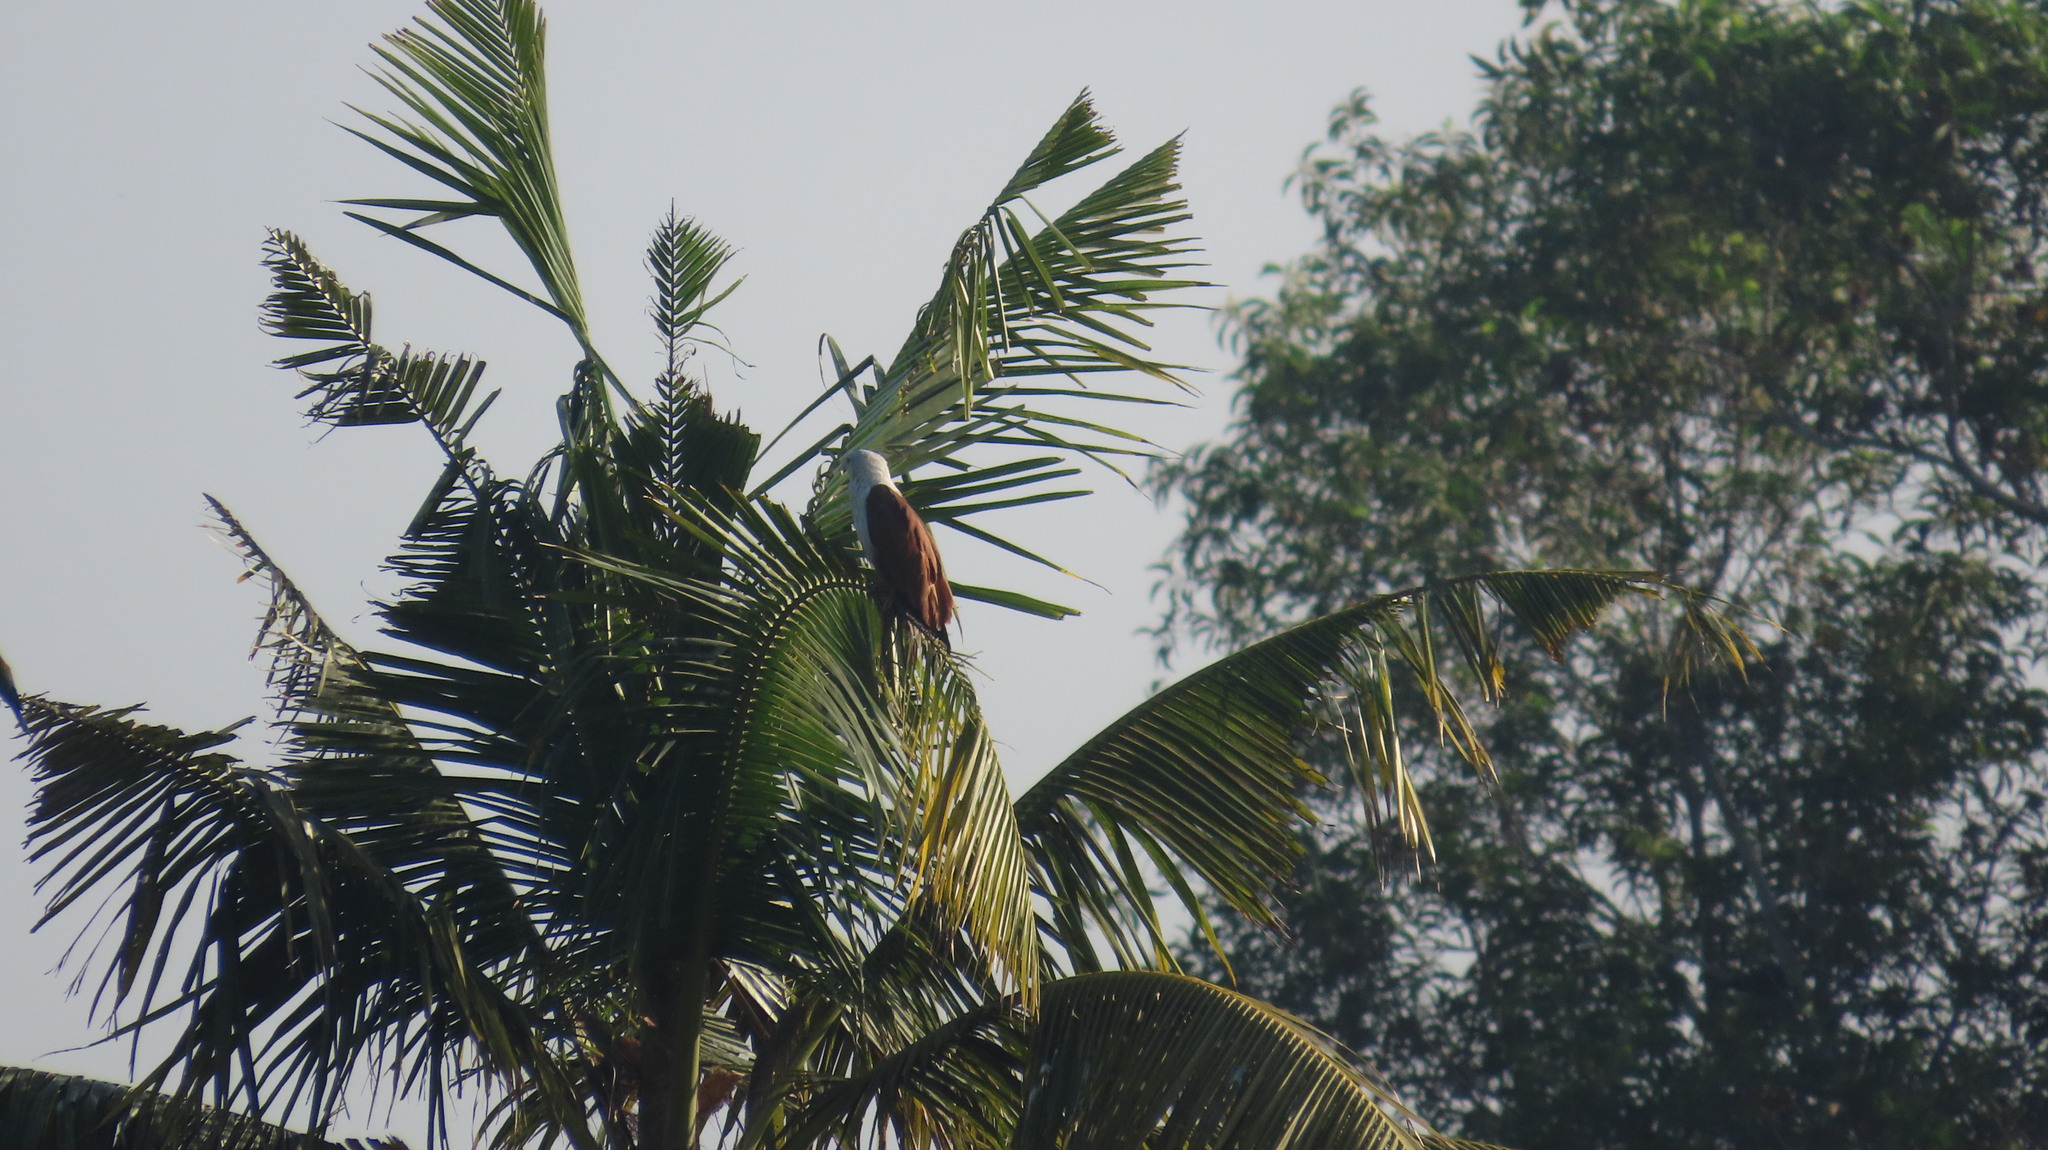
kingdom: Animalia
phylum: Chordata
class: Aves
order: Accipitriformes
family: Accipitridae
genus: Haliastur
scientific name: Haliastur indus
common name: Brahminy kite
